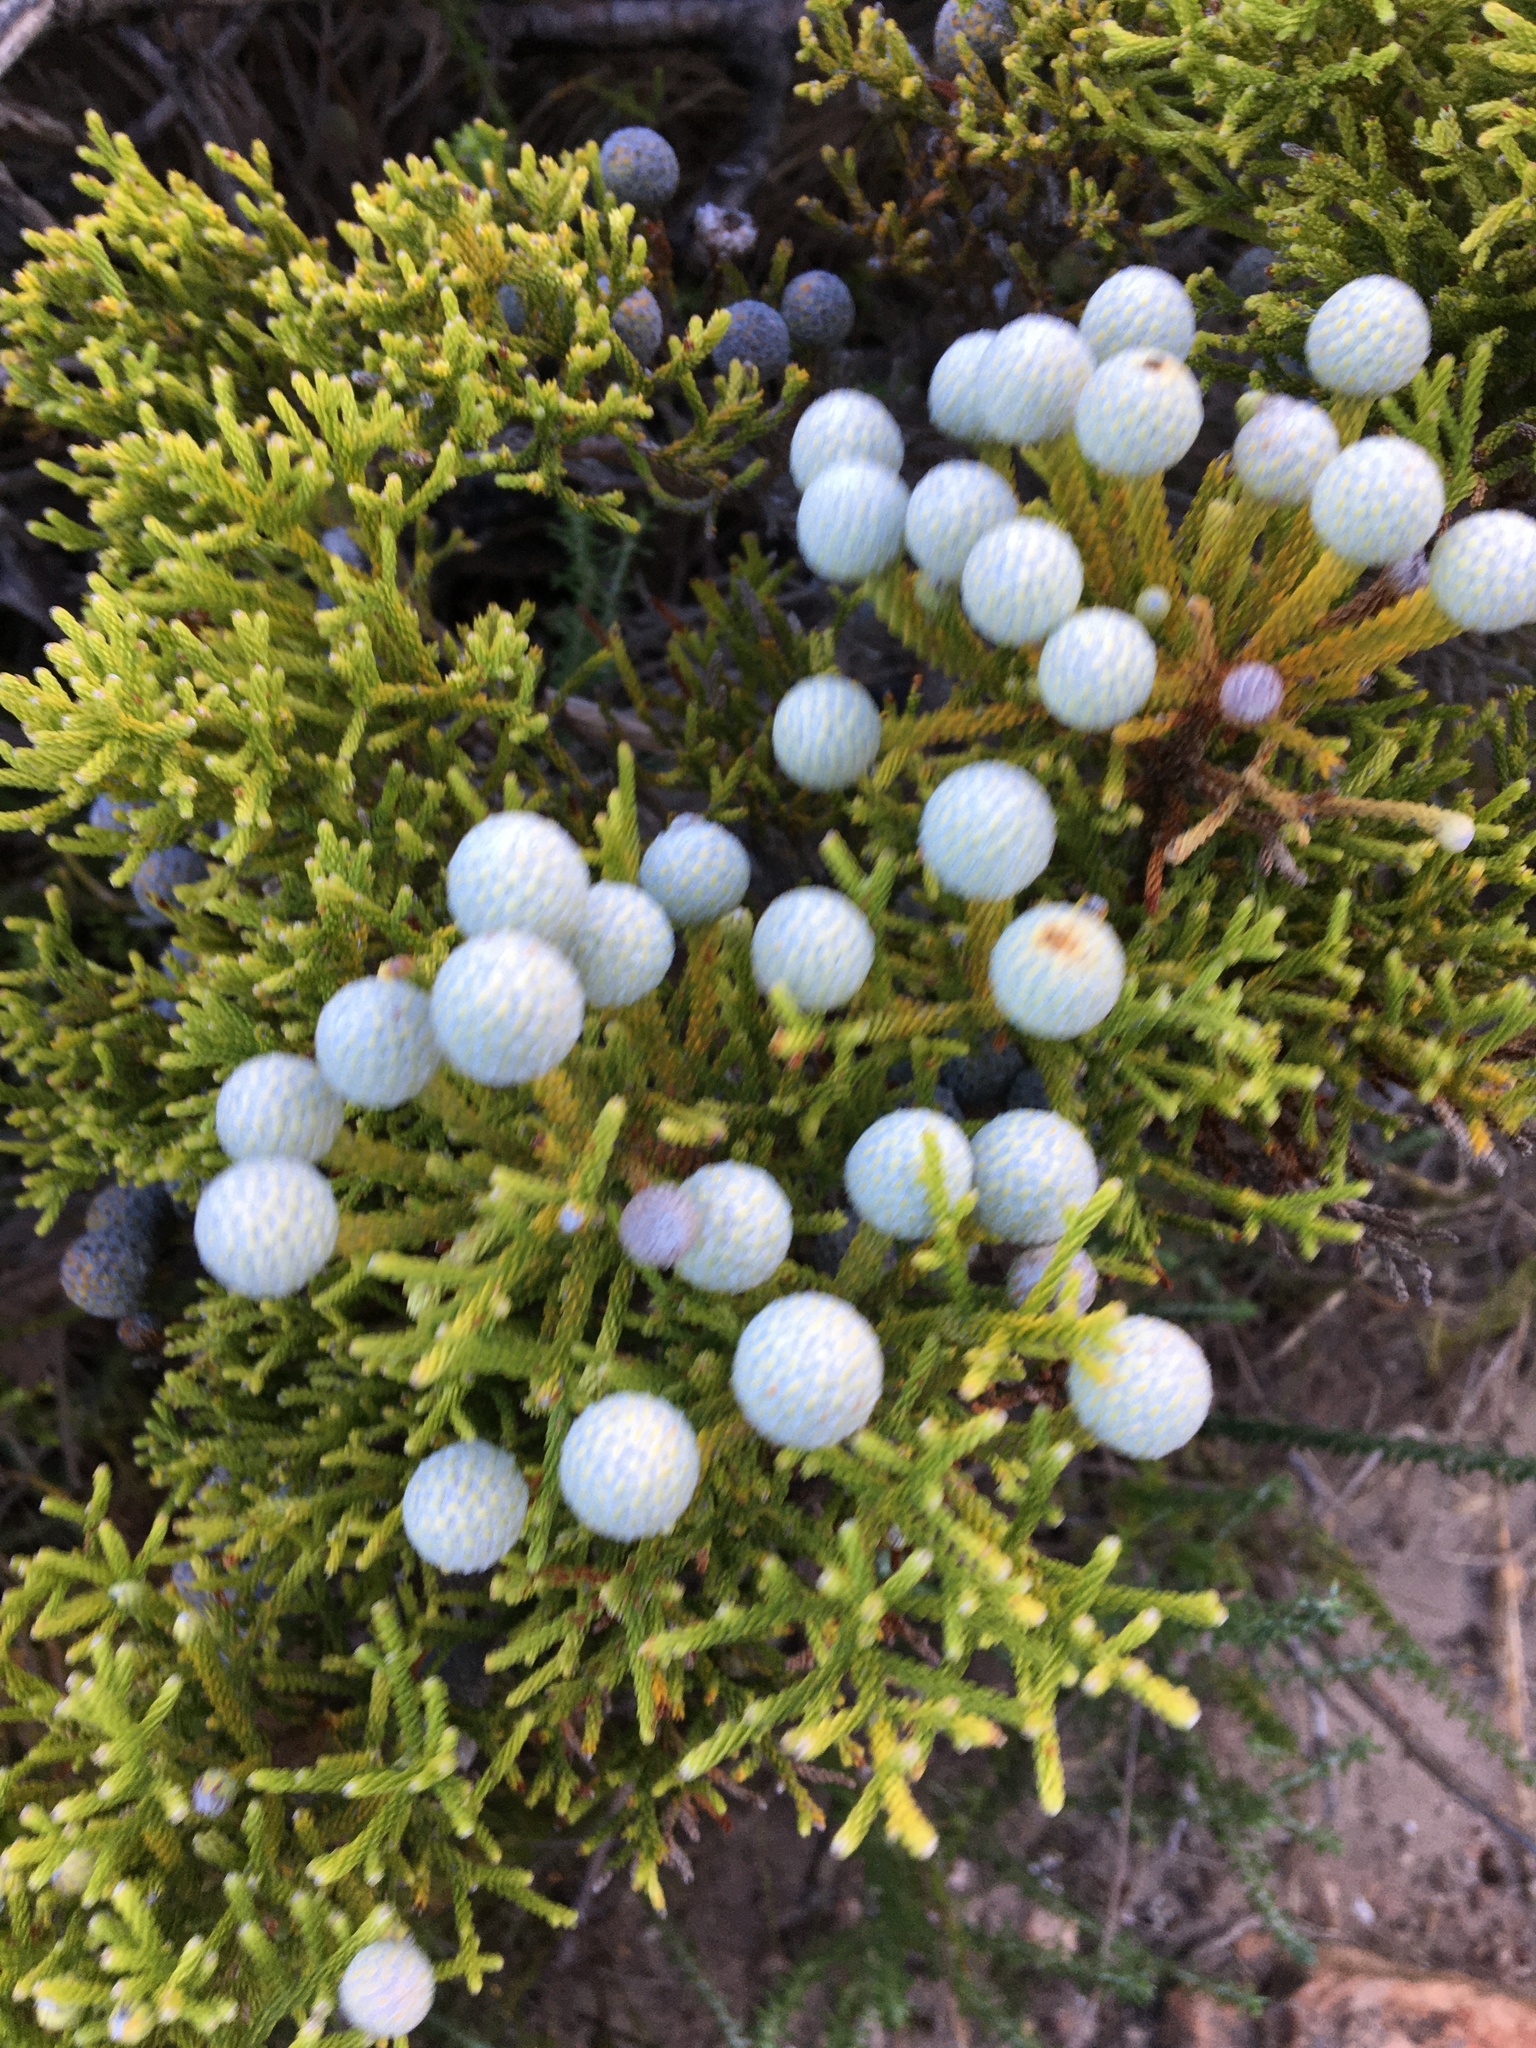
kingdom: Plantae
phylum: Tracheophyta
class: Magnoliopsida
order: Bruniales
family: Bruniaceae
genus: Brunia
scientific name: Brunia noduliflora
